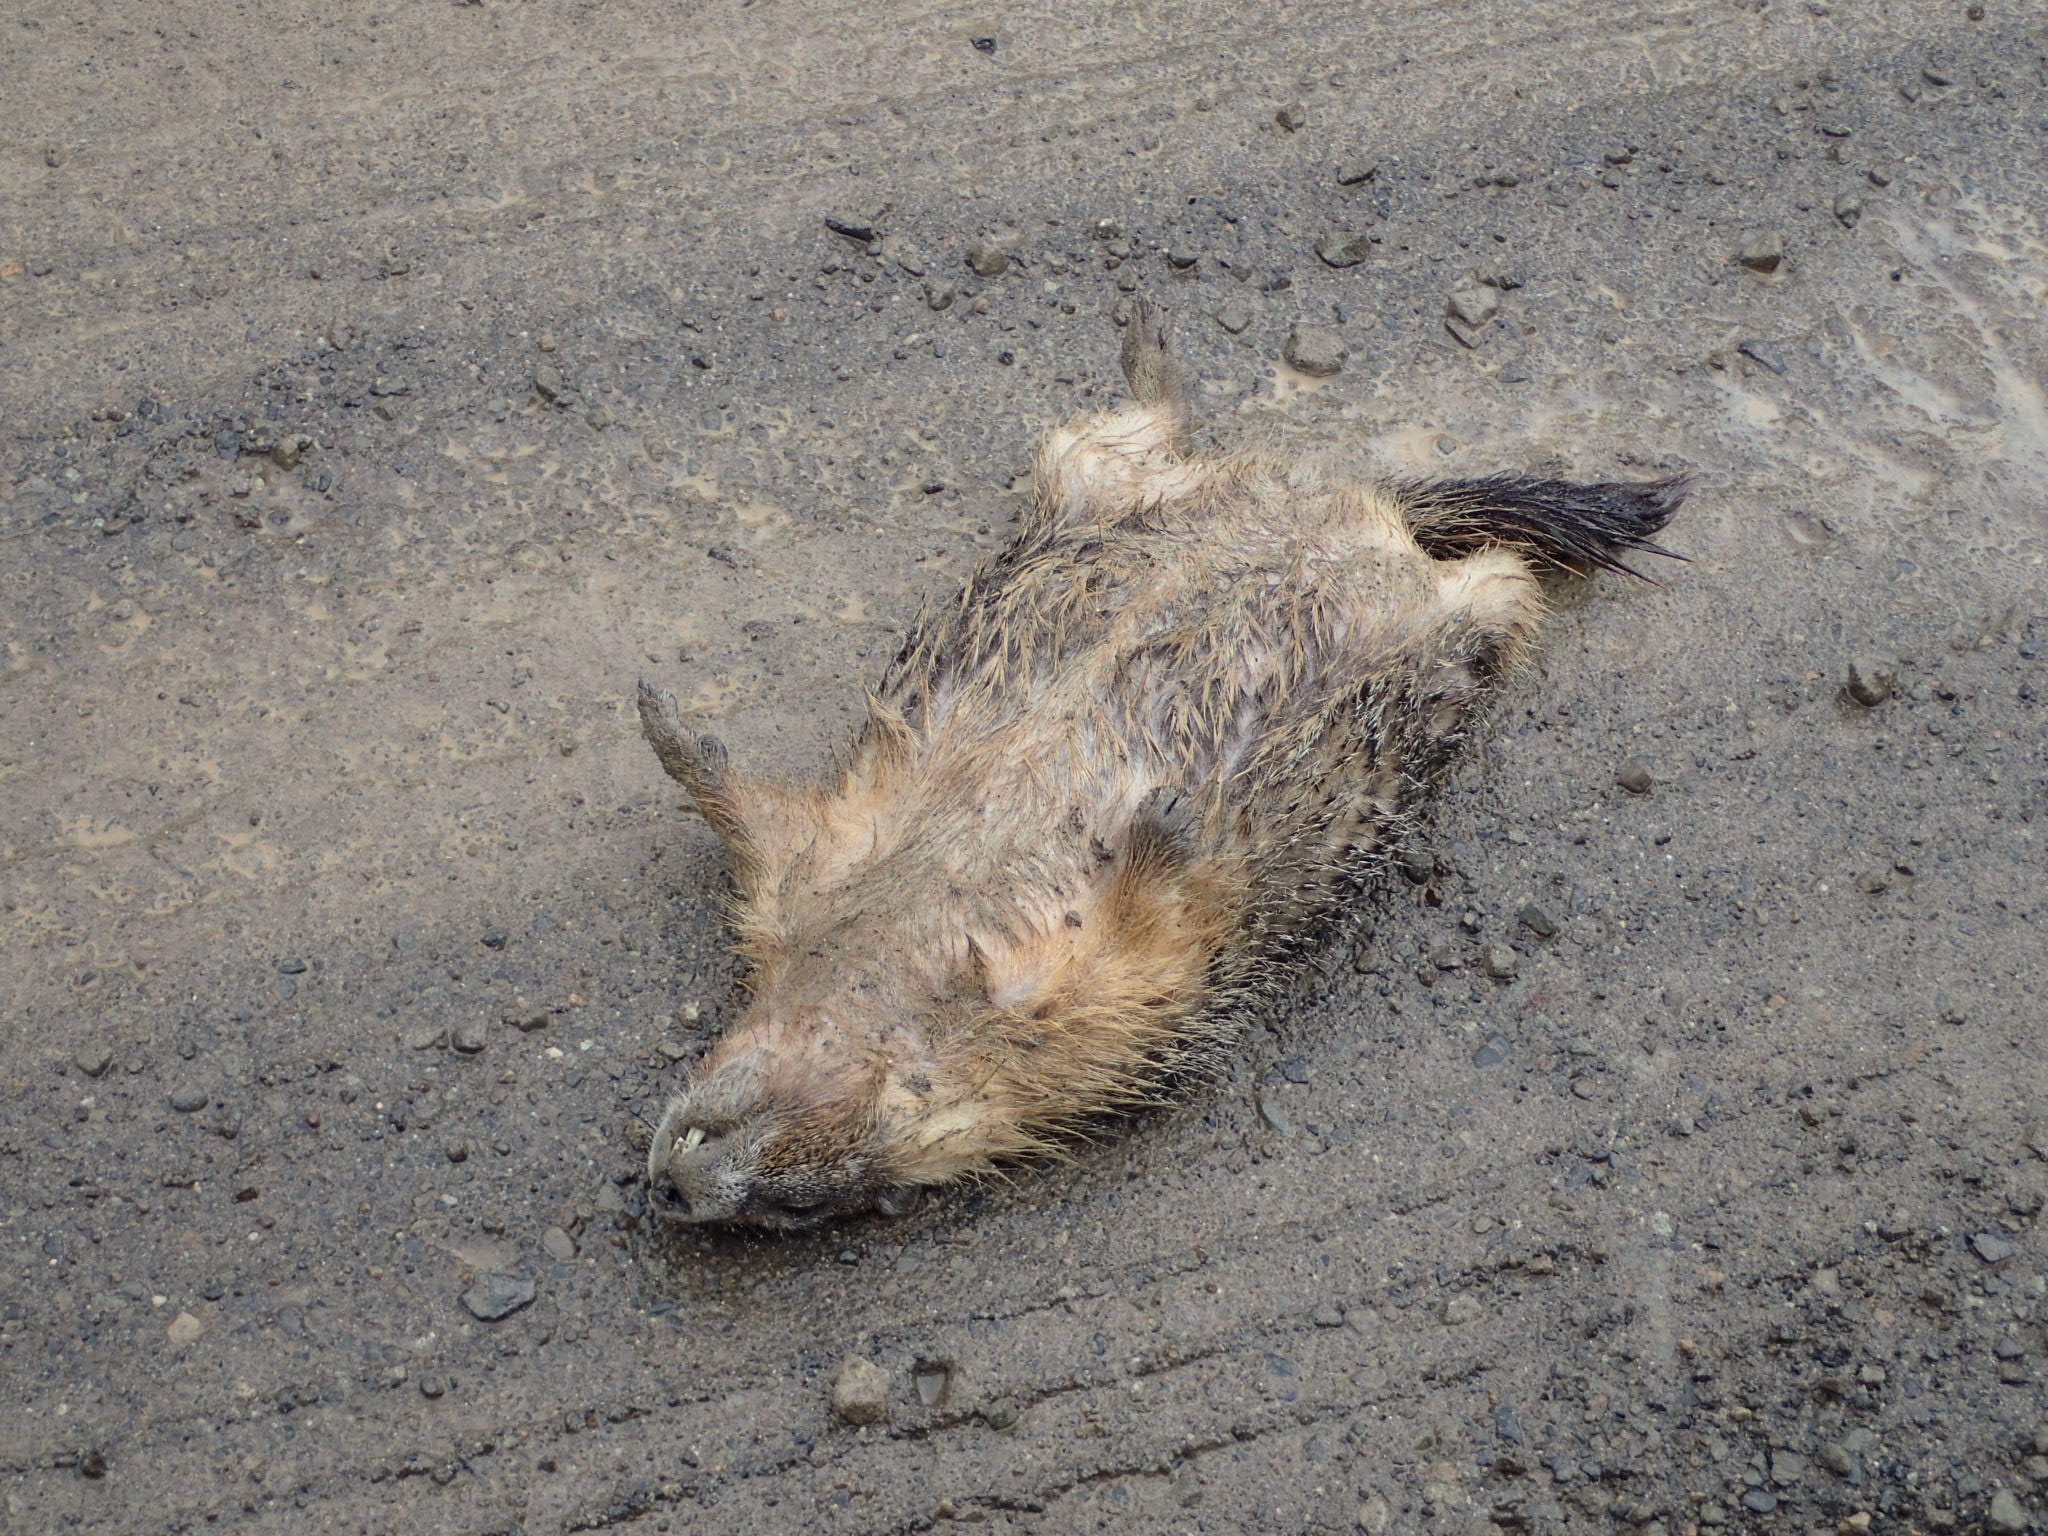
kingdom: Animalia
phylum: Chordata
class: Mammalia
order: Rodentia
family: Sciuridae
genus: Marmota
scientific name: Marmota flaviventris
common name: Yellow-bellied marmot
